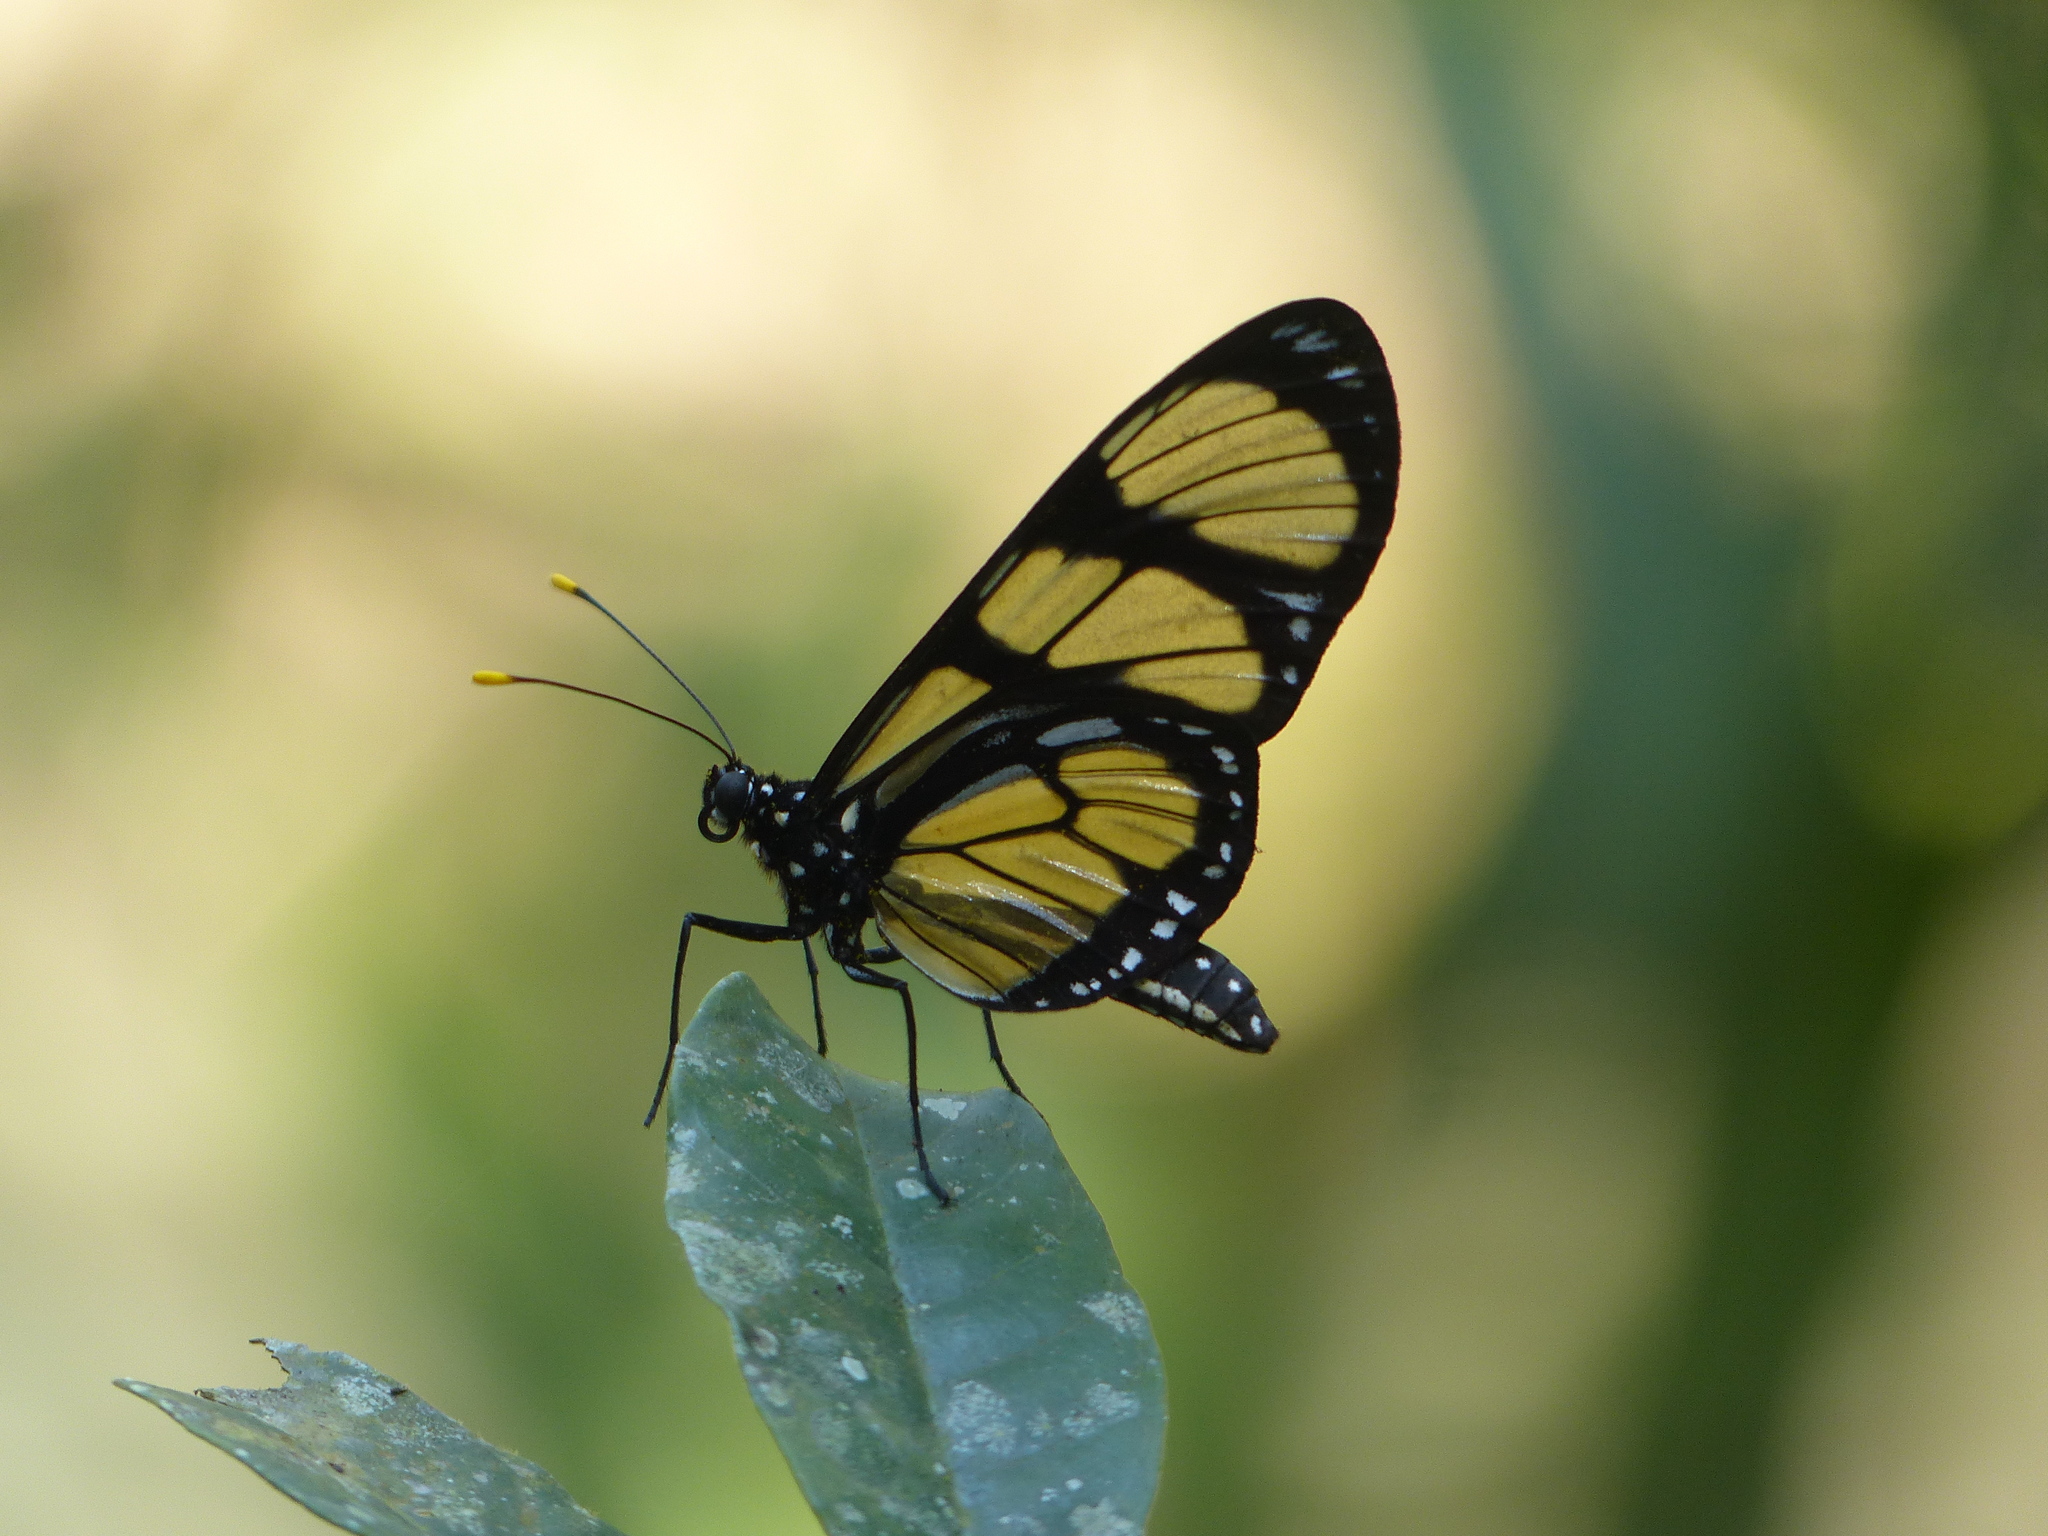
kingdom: Animalia
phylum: Arthropoda
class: Insecta
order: Lepidoptera
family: Nymphalidae
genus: Methona
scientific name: Methona themisto
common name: Themisto amberwing
